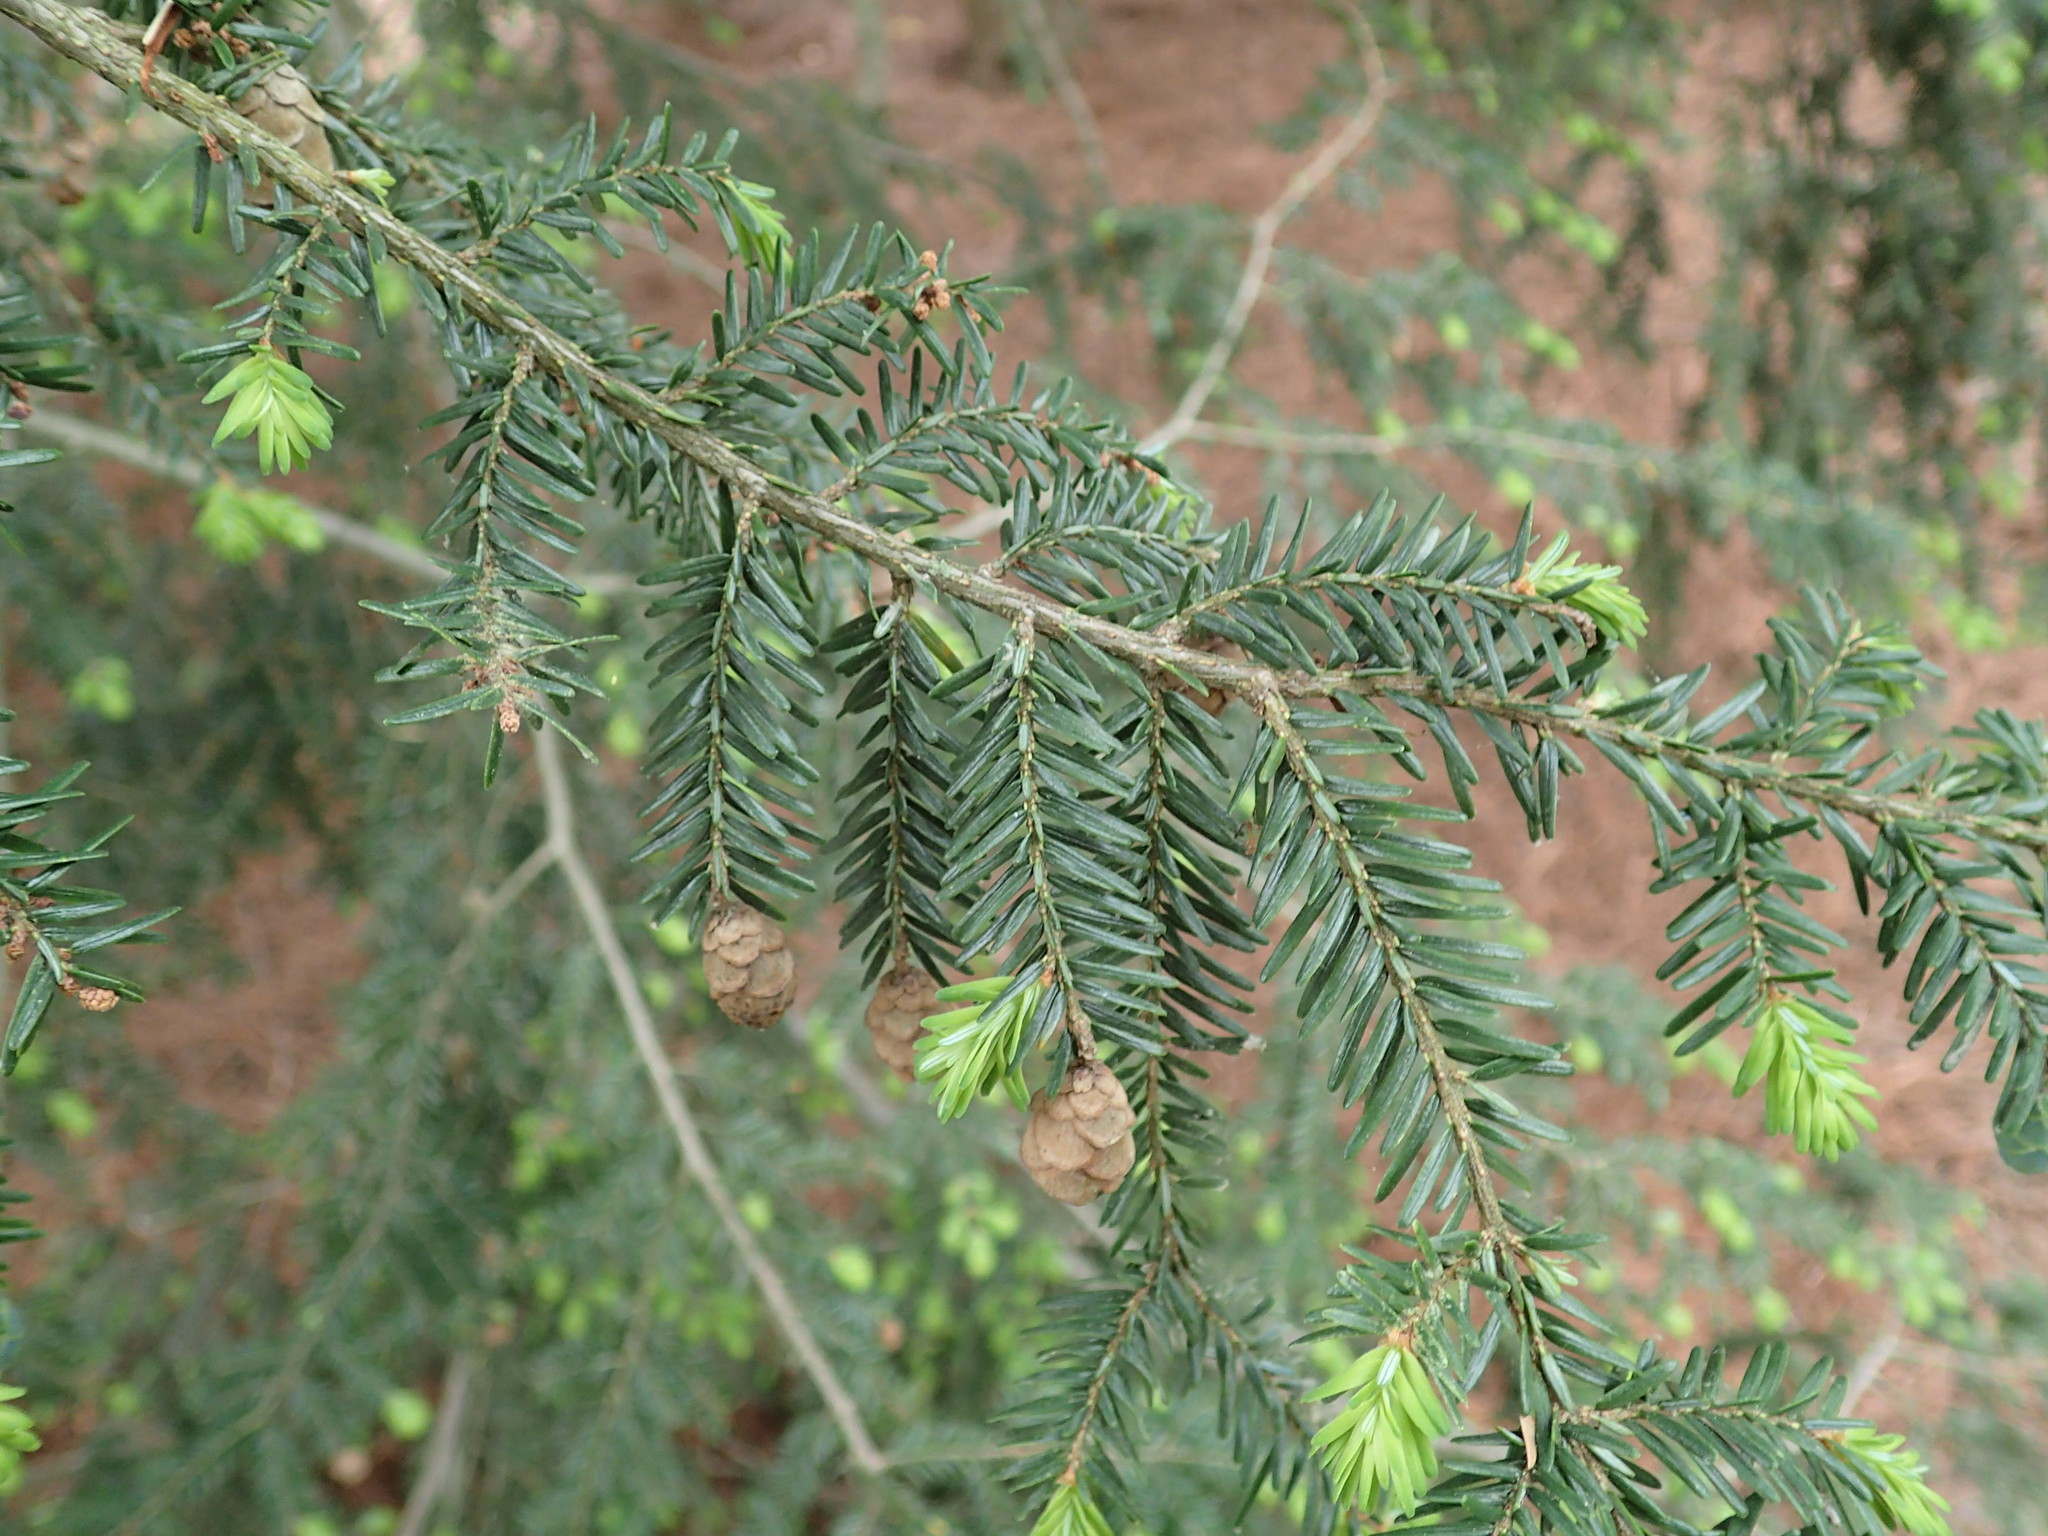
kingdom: Plantae
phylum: Tracheophyta
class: Pinopsida
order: Pinales
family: Pinaceae
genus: Tsuga
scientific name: Tsuga canadensis
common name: Eastern hemlock
